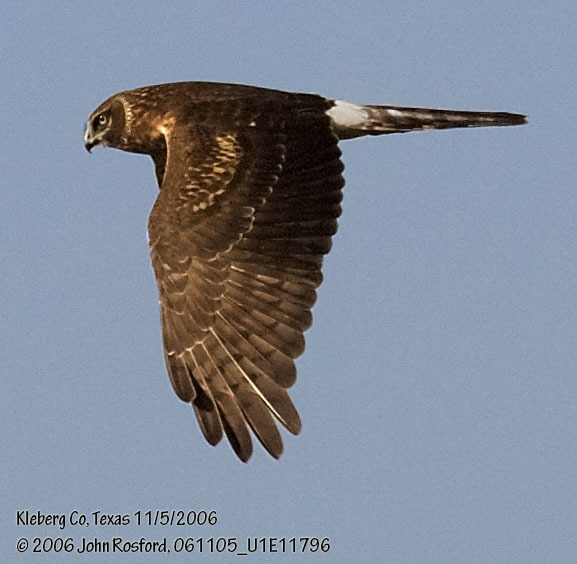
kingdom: Animalia
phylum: Chordata
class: Aves
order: Accipitriformes
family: Accipitridae
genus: Circus
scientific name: Circus cyaneus
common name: Hen harrier
